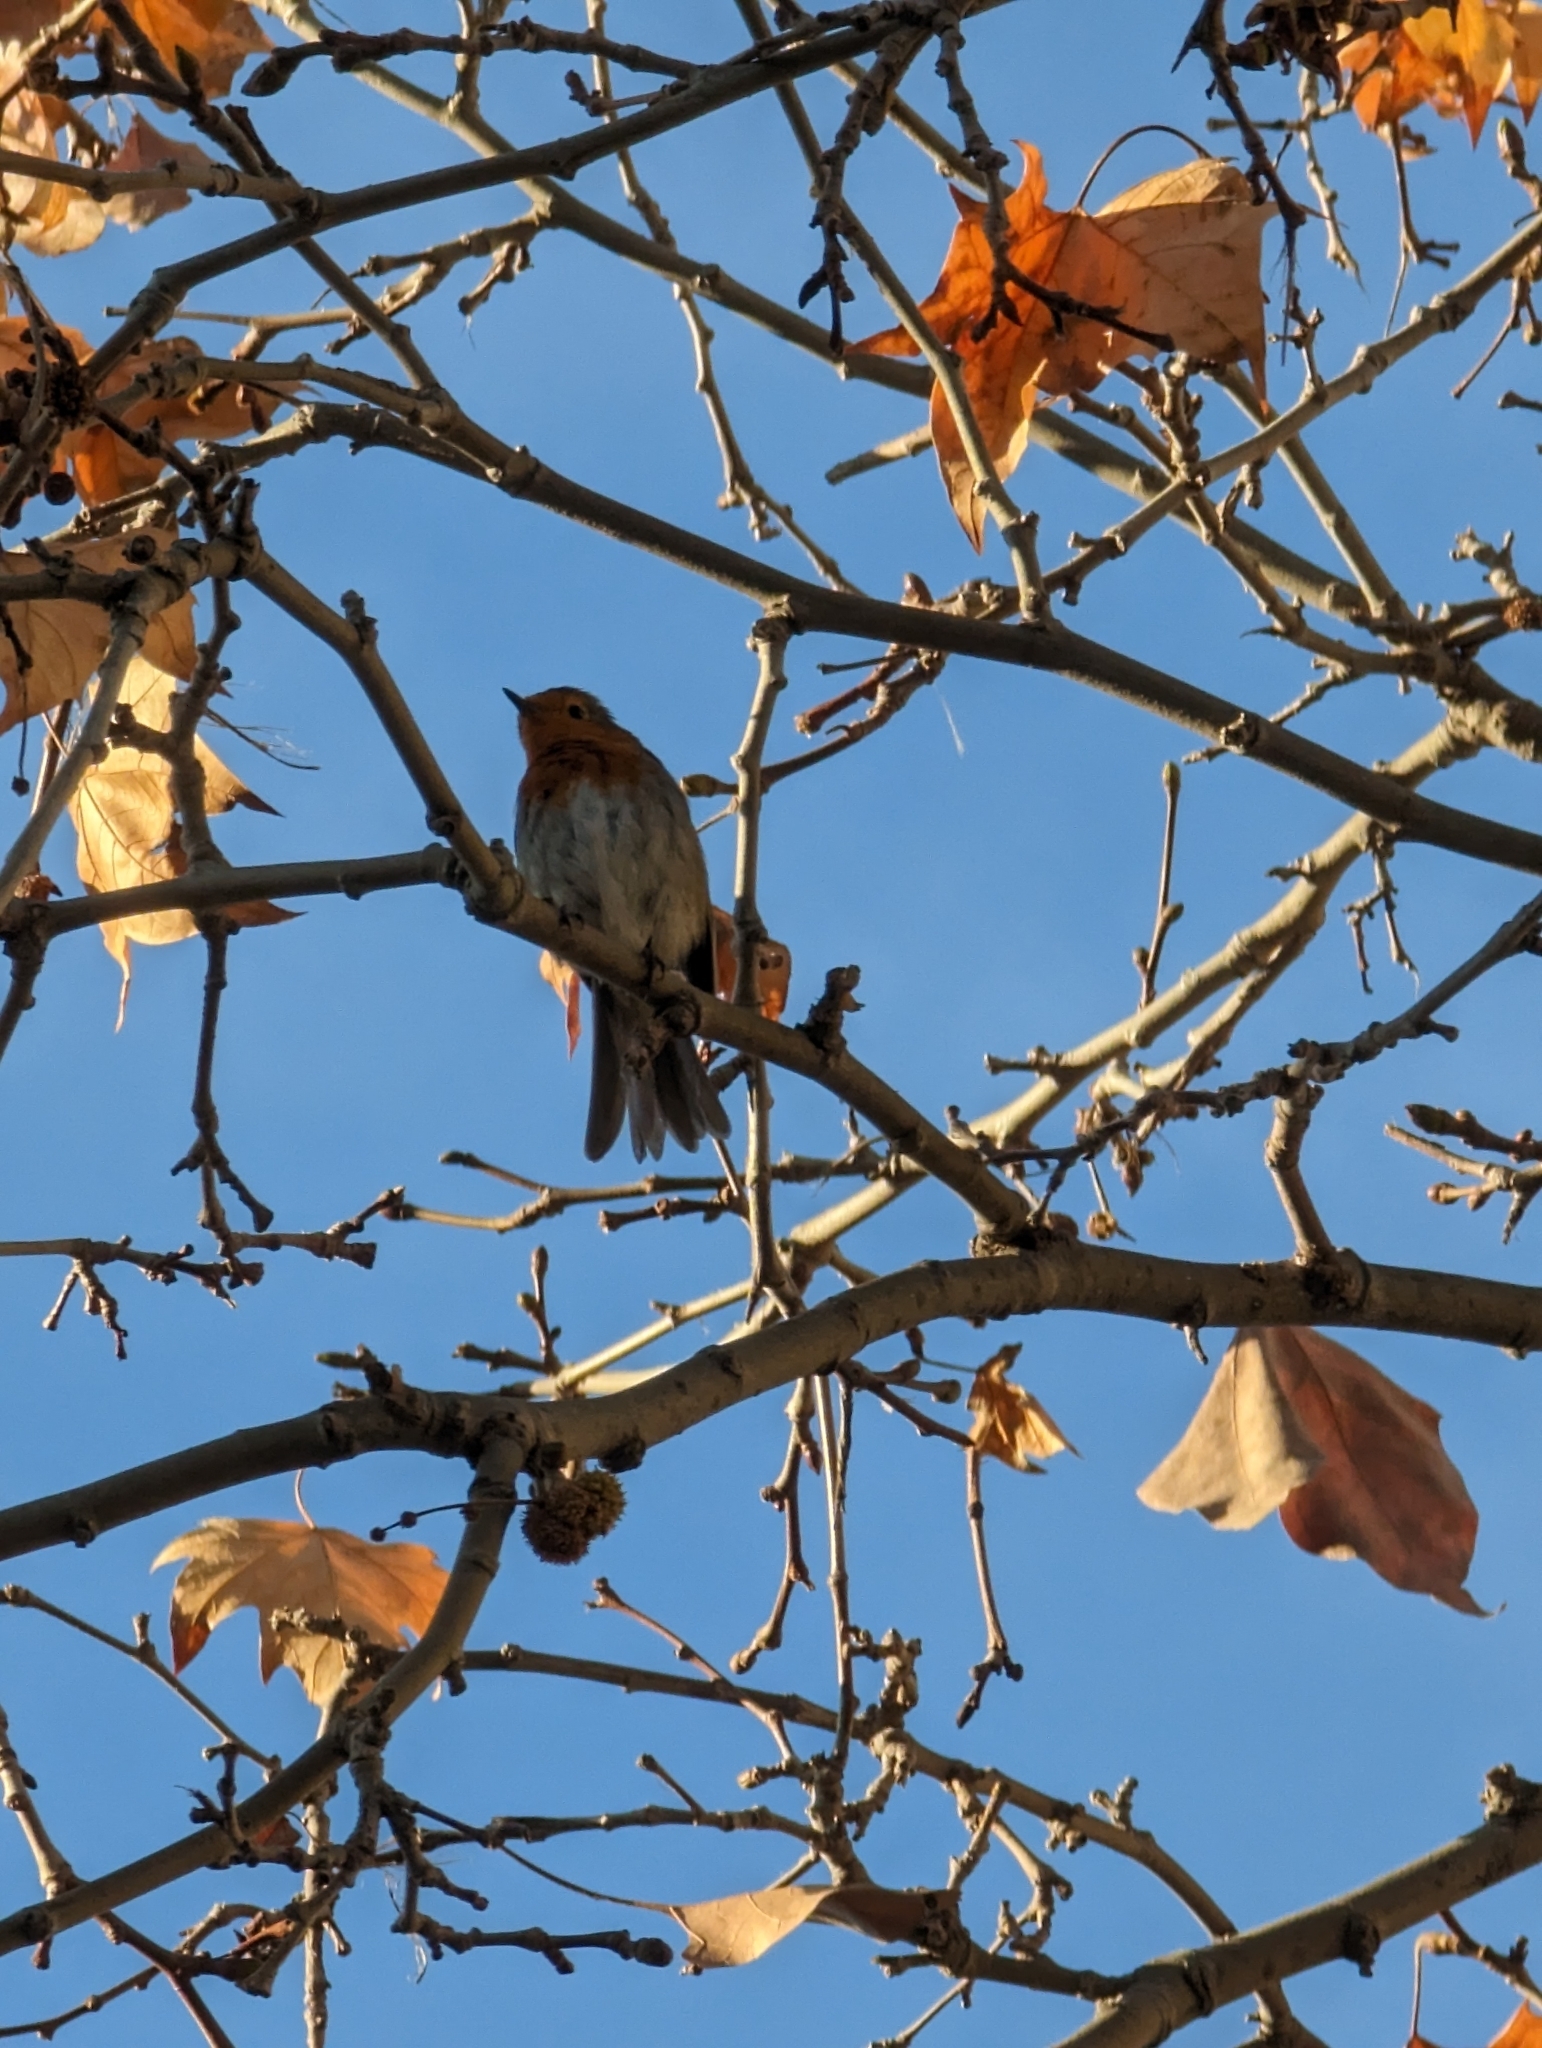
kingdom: Animalia
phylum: Chordata
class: Aves
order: Passeriformes
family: Muscicapidae
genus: Erithacus
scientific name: Erithacus rubecula
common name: European robin
